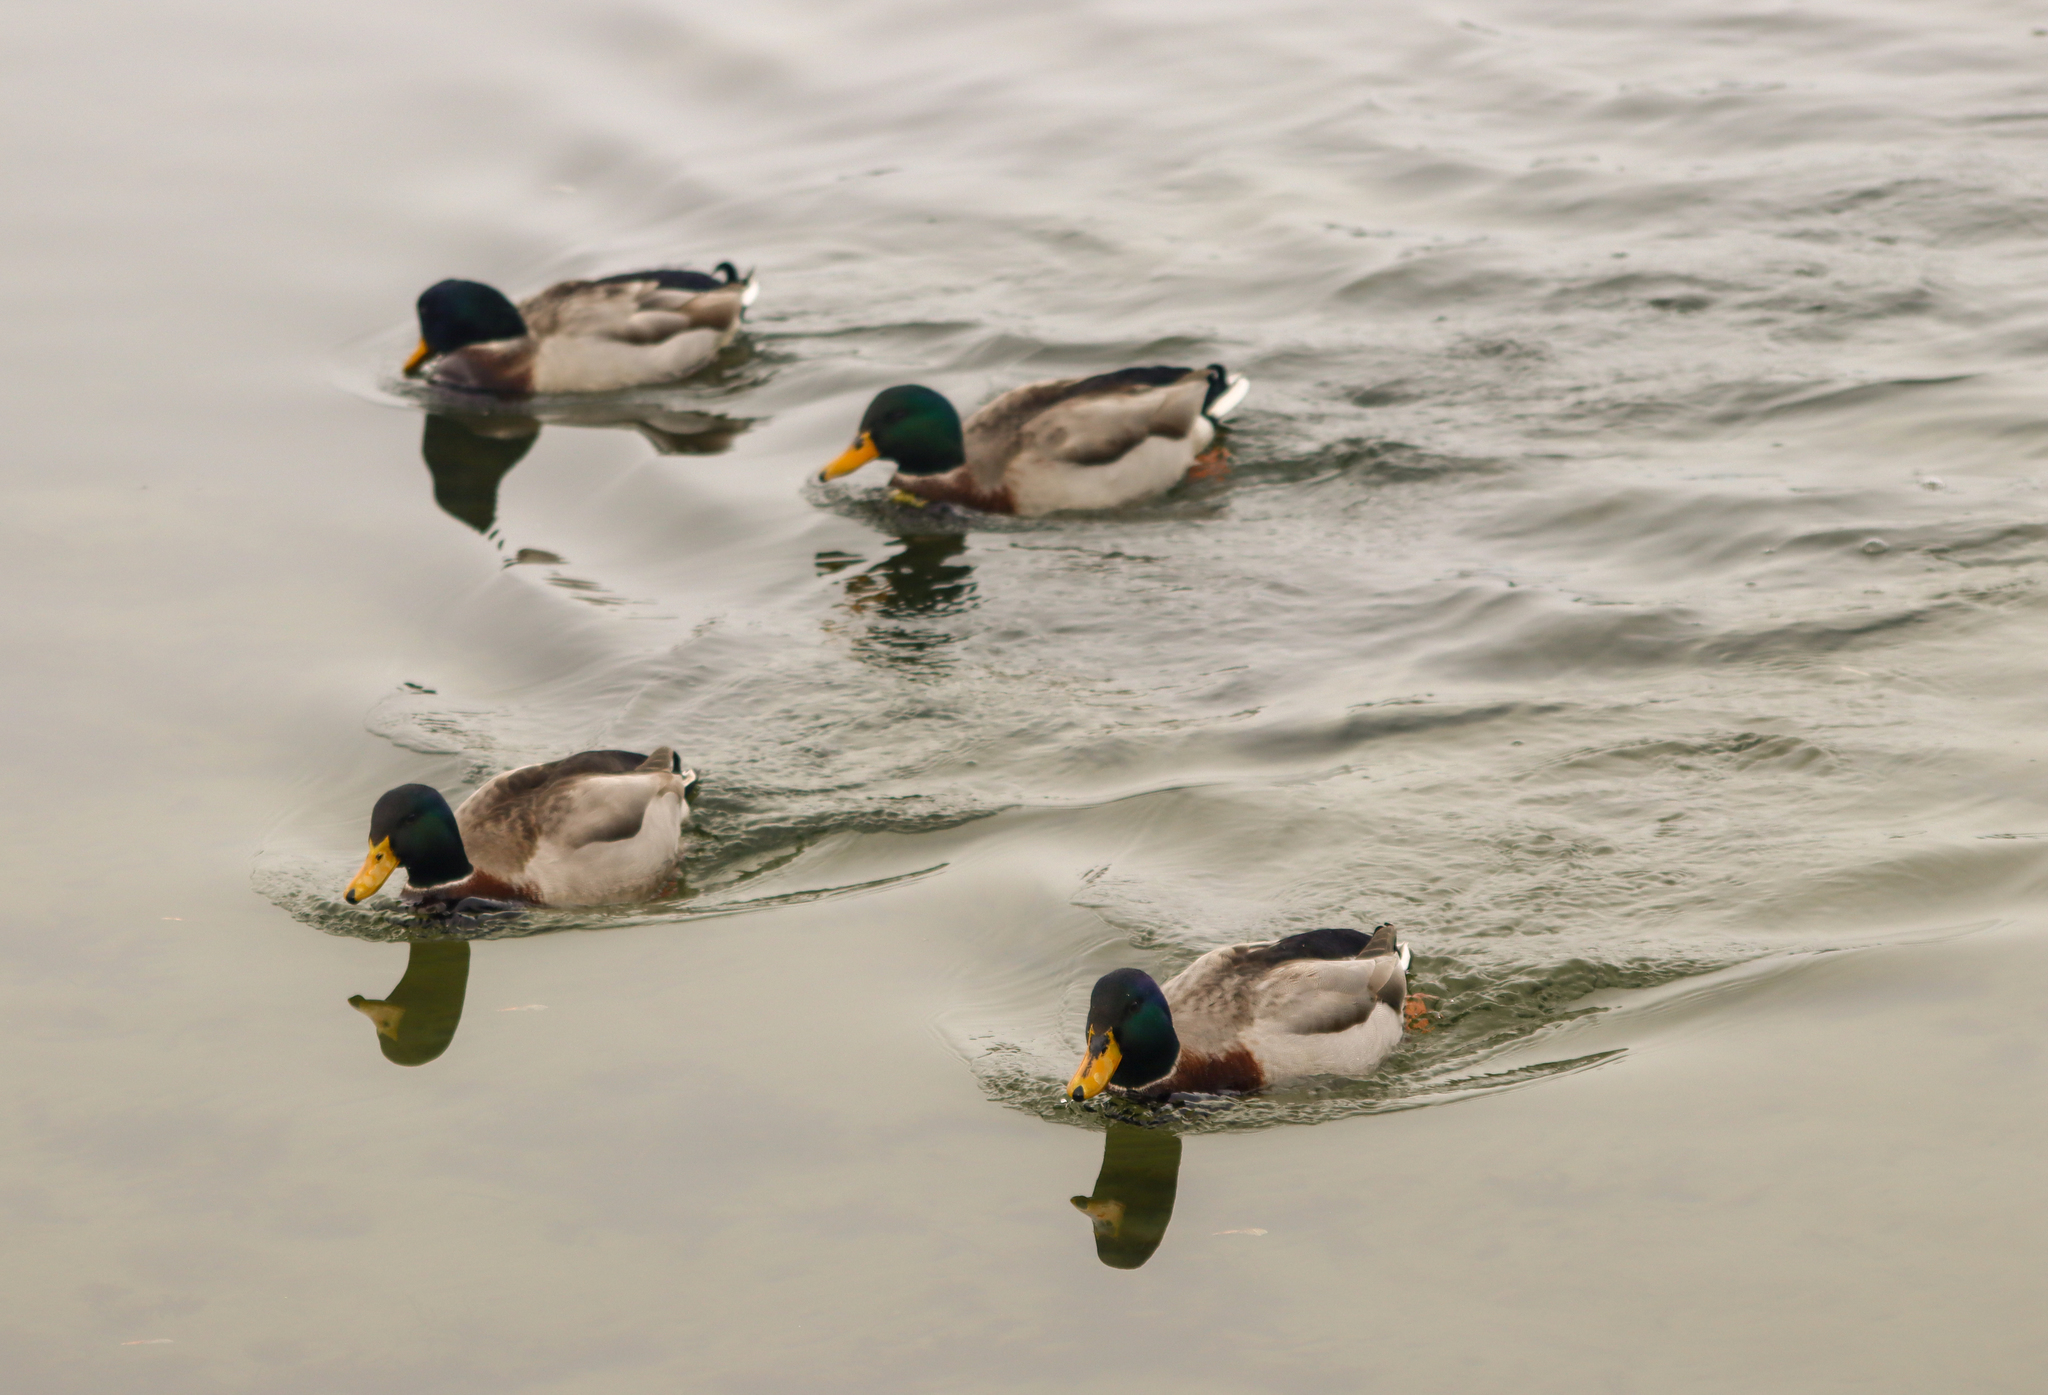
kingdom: Animalia
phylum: Chordata
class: Aves
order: Anseriformes
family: Anatidae
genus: Anas
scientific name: Anas platyrhynchos
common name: Mallard
